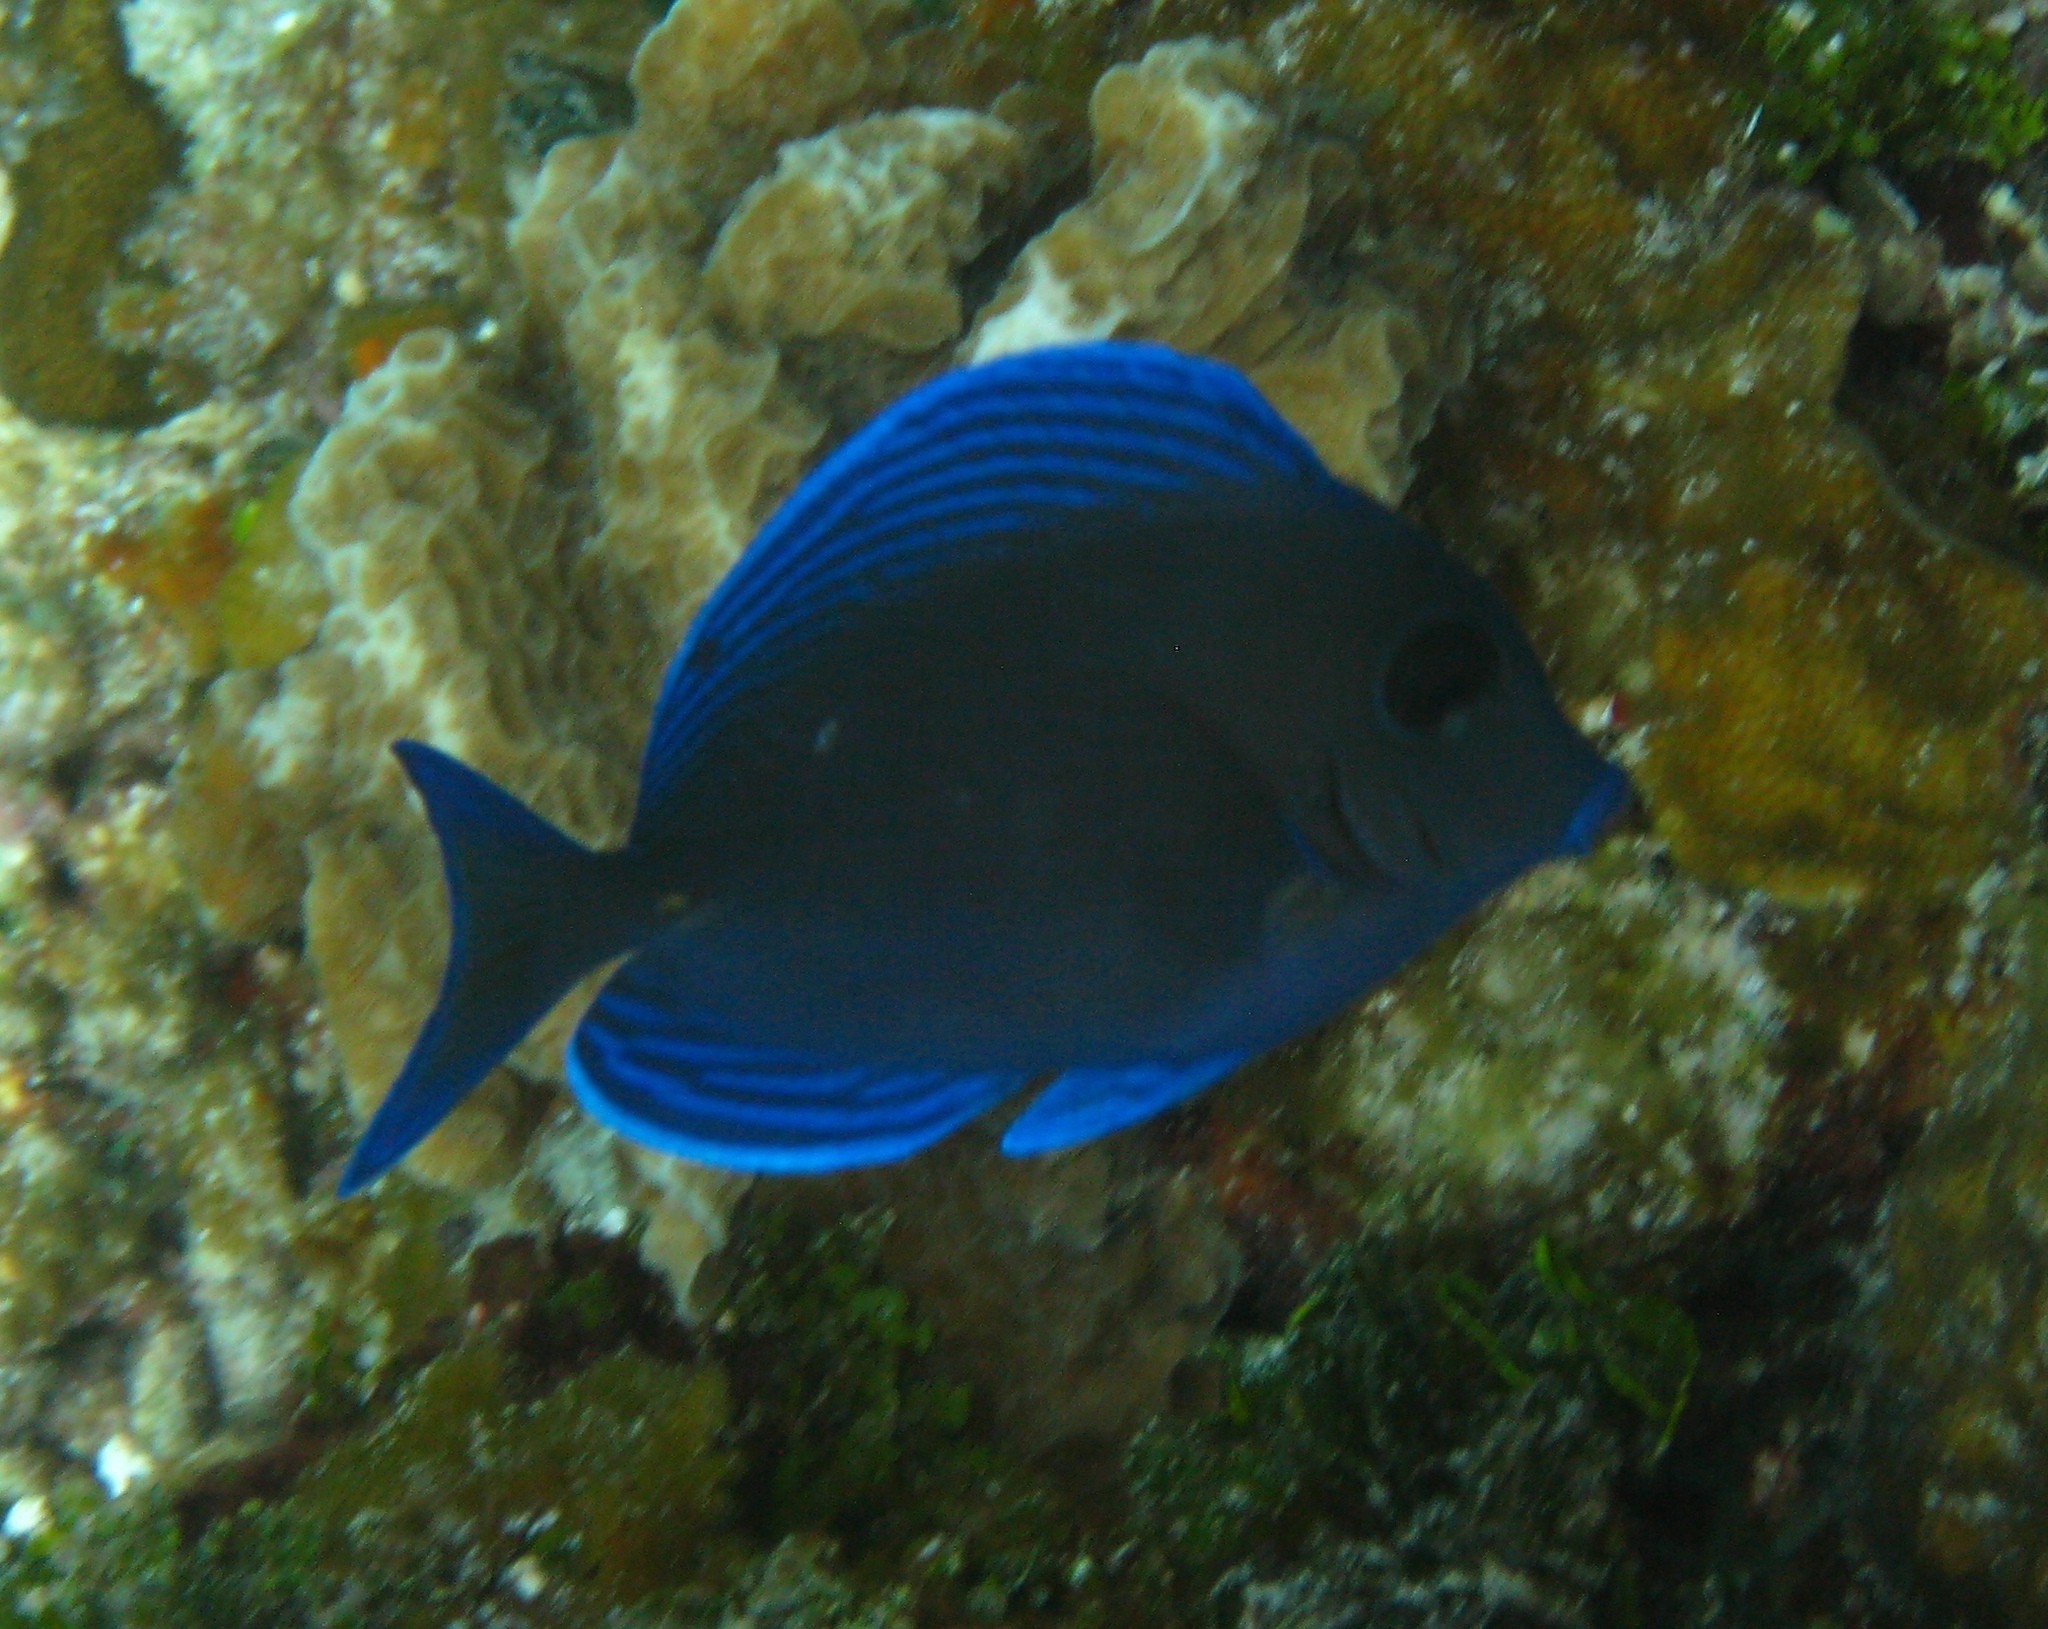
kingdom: Animalia
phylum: Chordata
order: Perciformes
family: Acanthuridae
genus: Acanthurus
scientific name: Acanthurus coeruleus
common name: Blue tang
